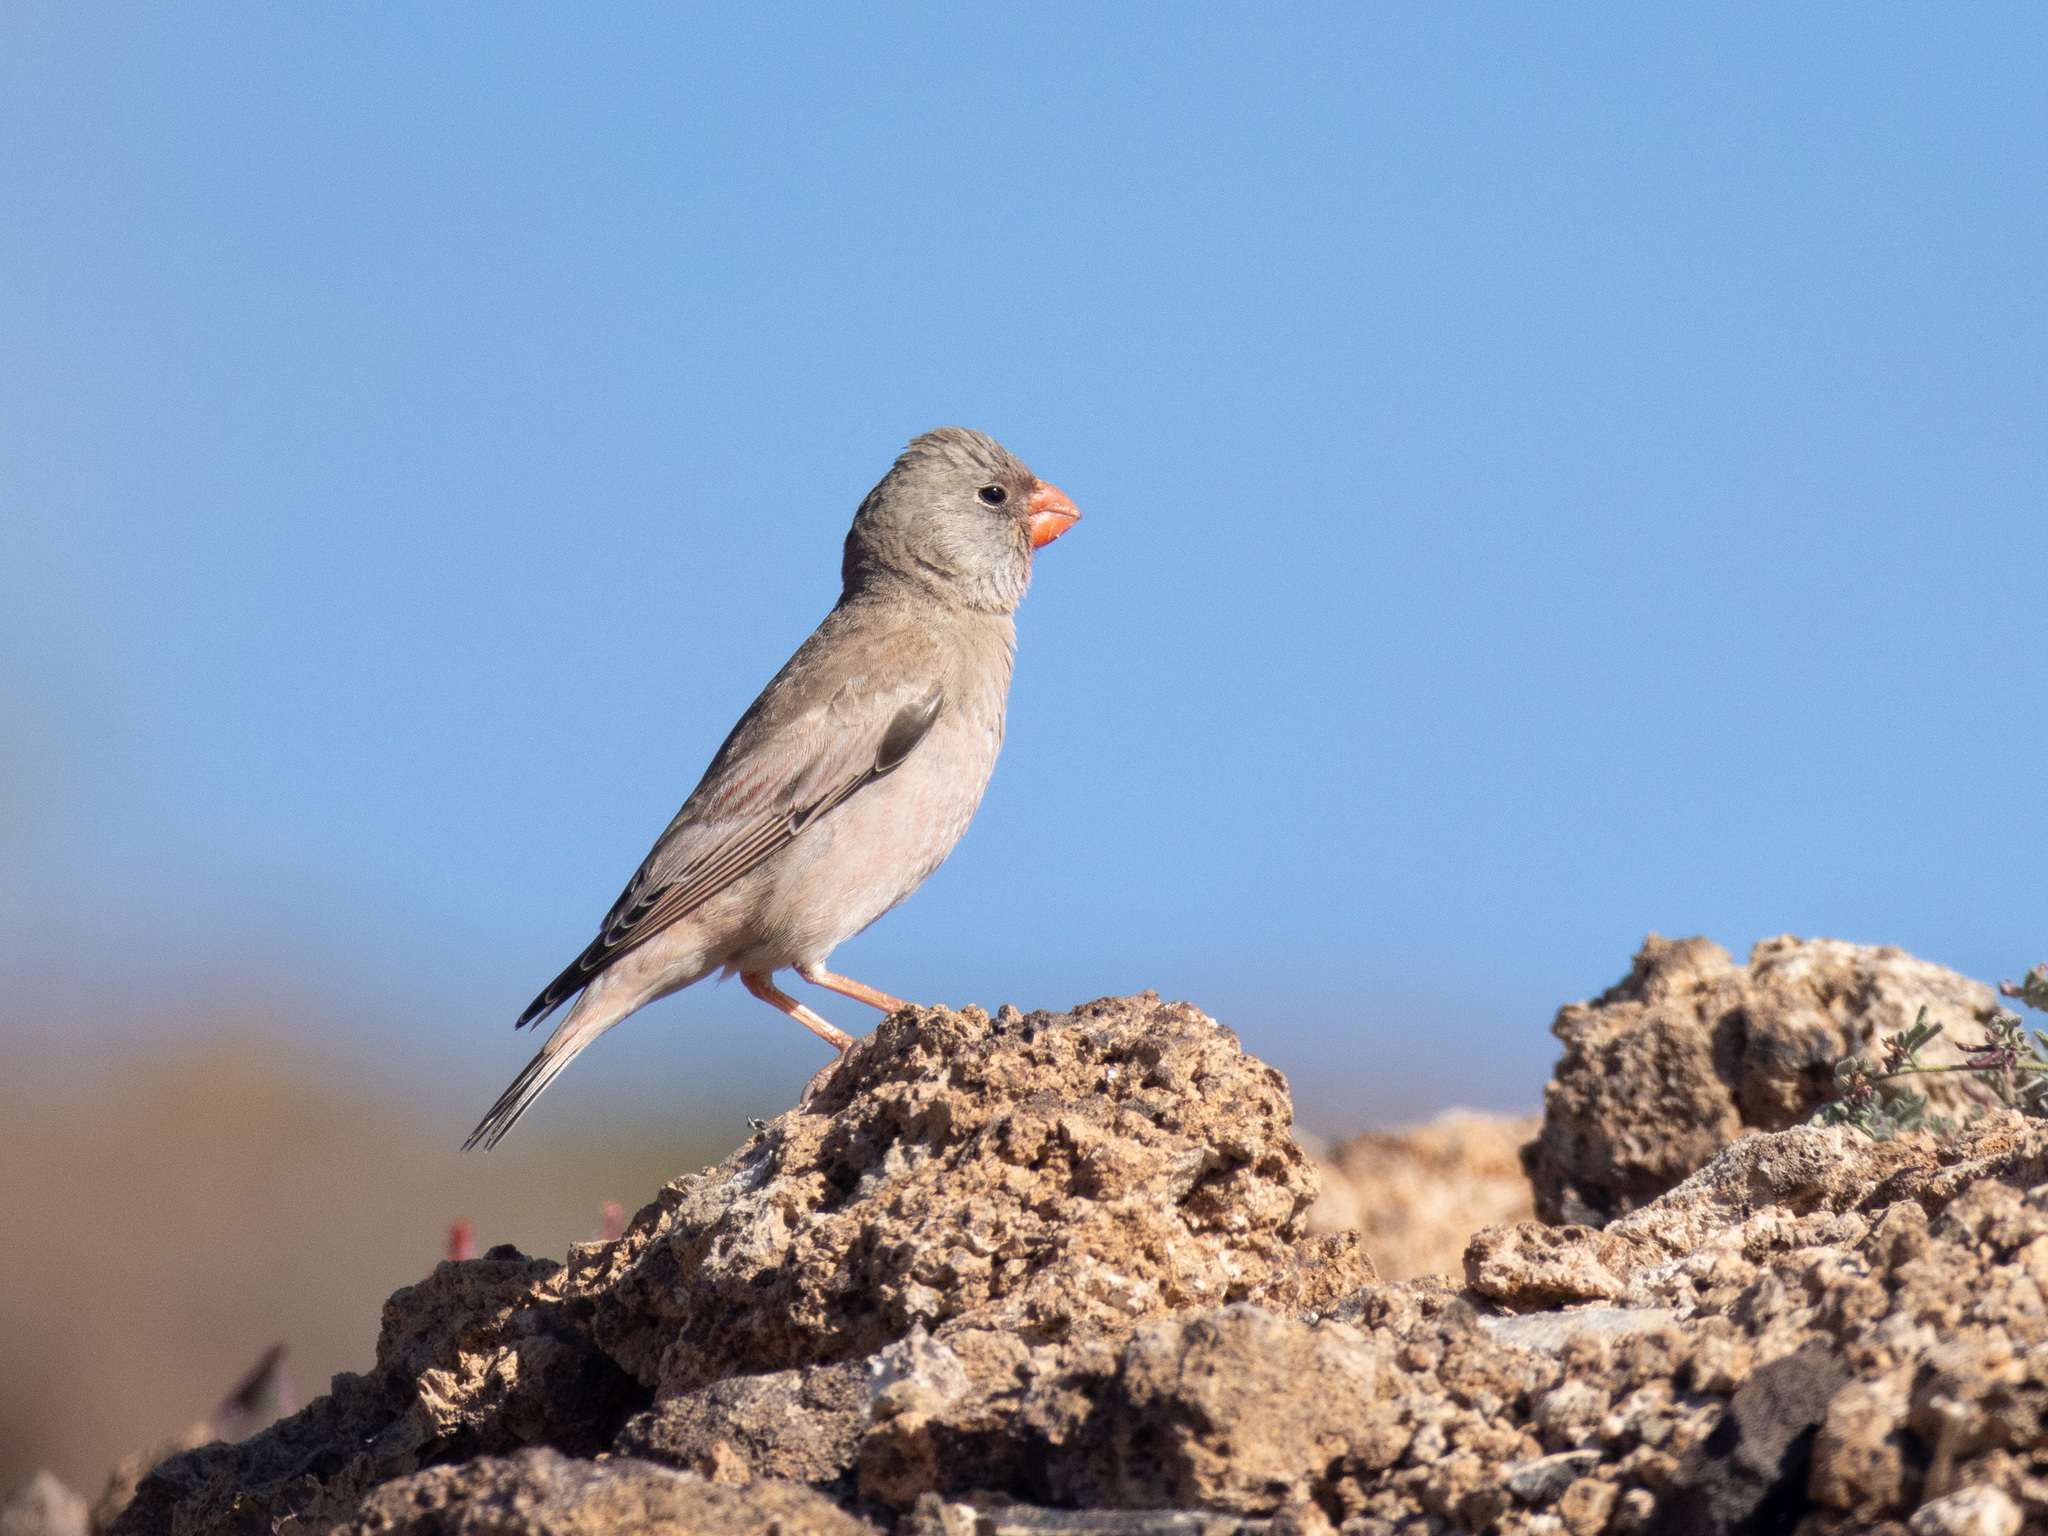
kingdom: Animalia
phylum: Chordata
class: Aves
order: Passeriformes
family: Fringillidae
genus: Bucanetes
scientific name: Bucanetes githagineus
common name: Trumpeter finch
